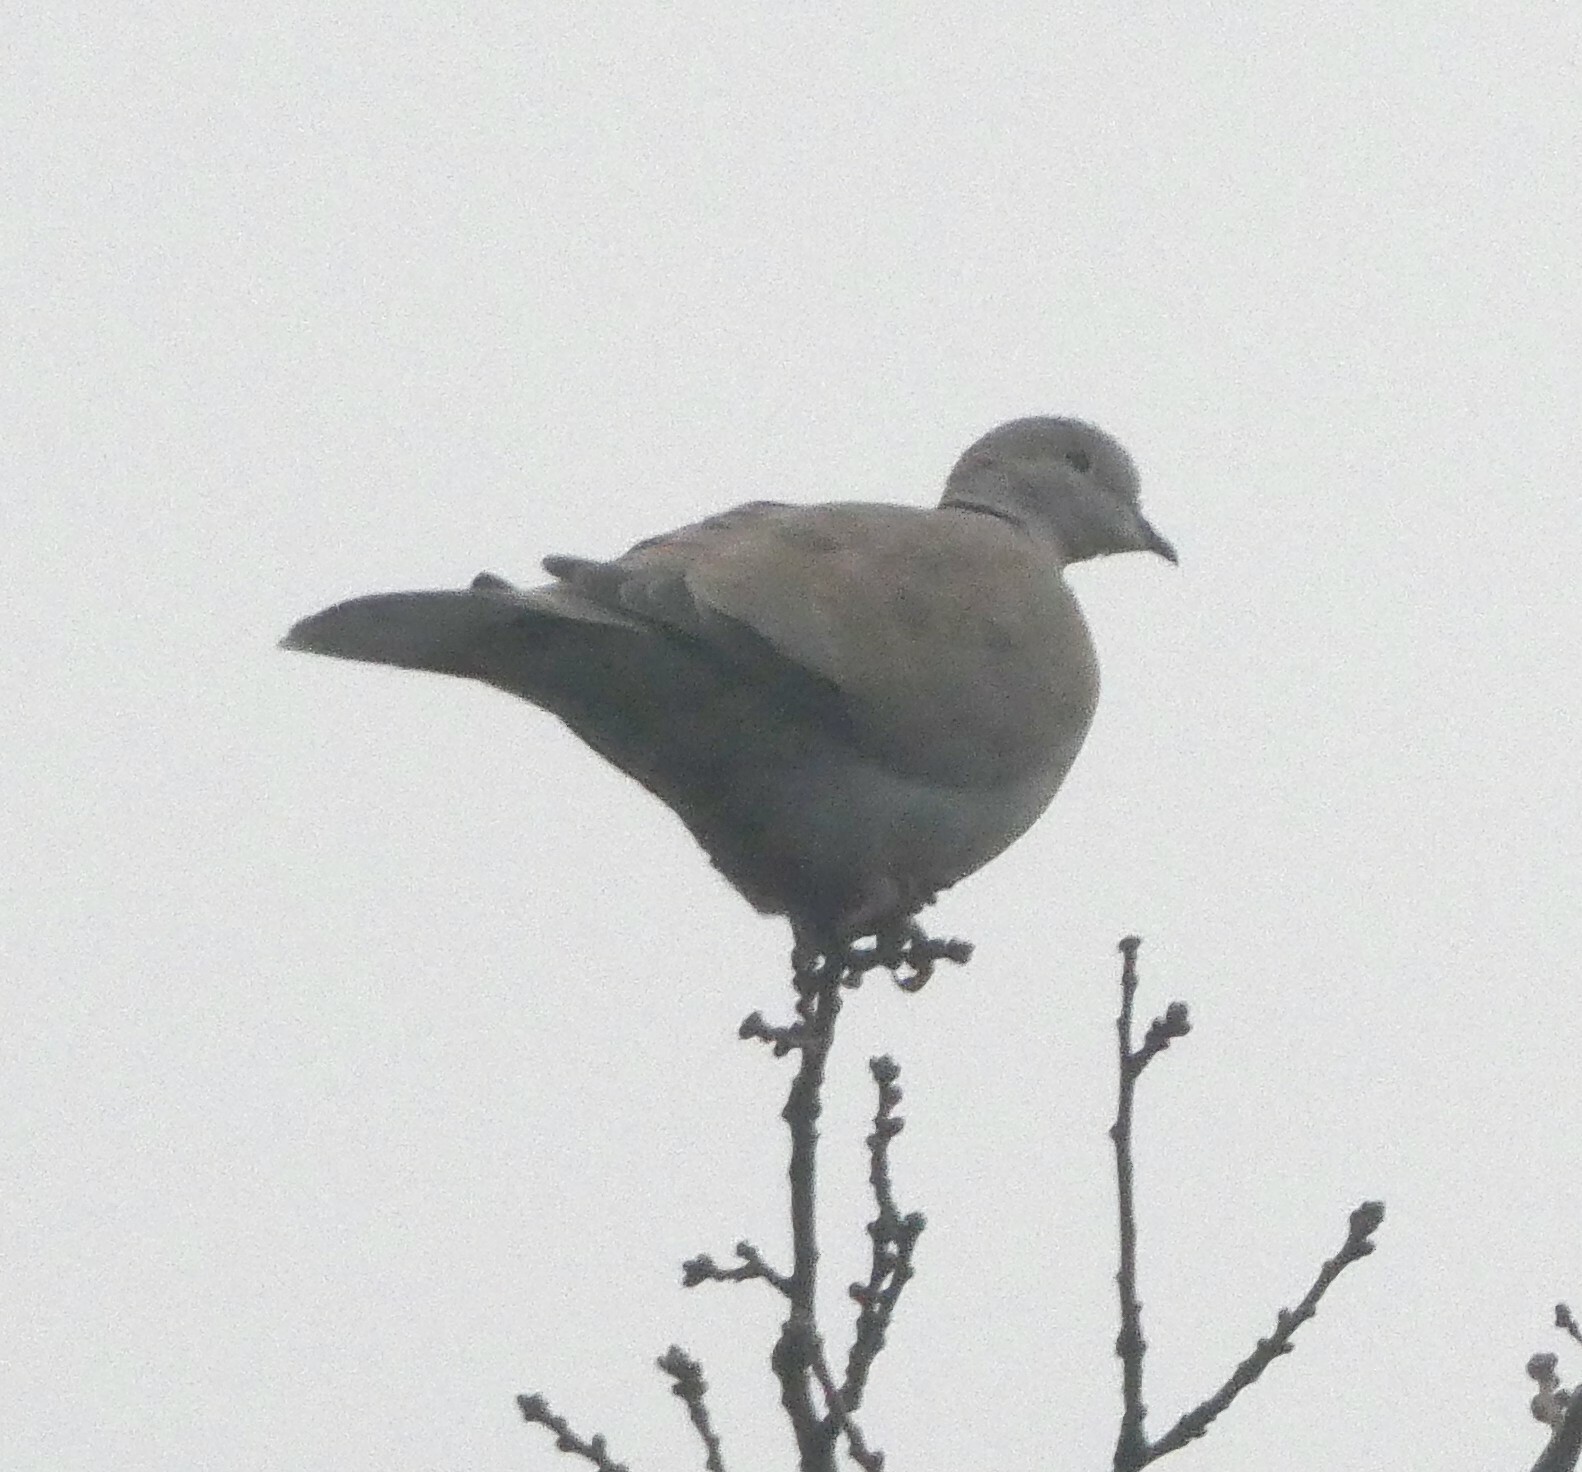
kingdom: Animalia
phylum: Chordata
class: Aves
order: Columbiformes
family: Columbidae
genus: Streptopelia
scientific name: Streptopelia decaocto
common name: Eurasian collared dove
